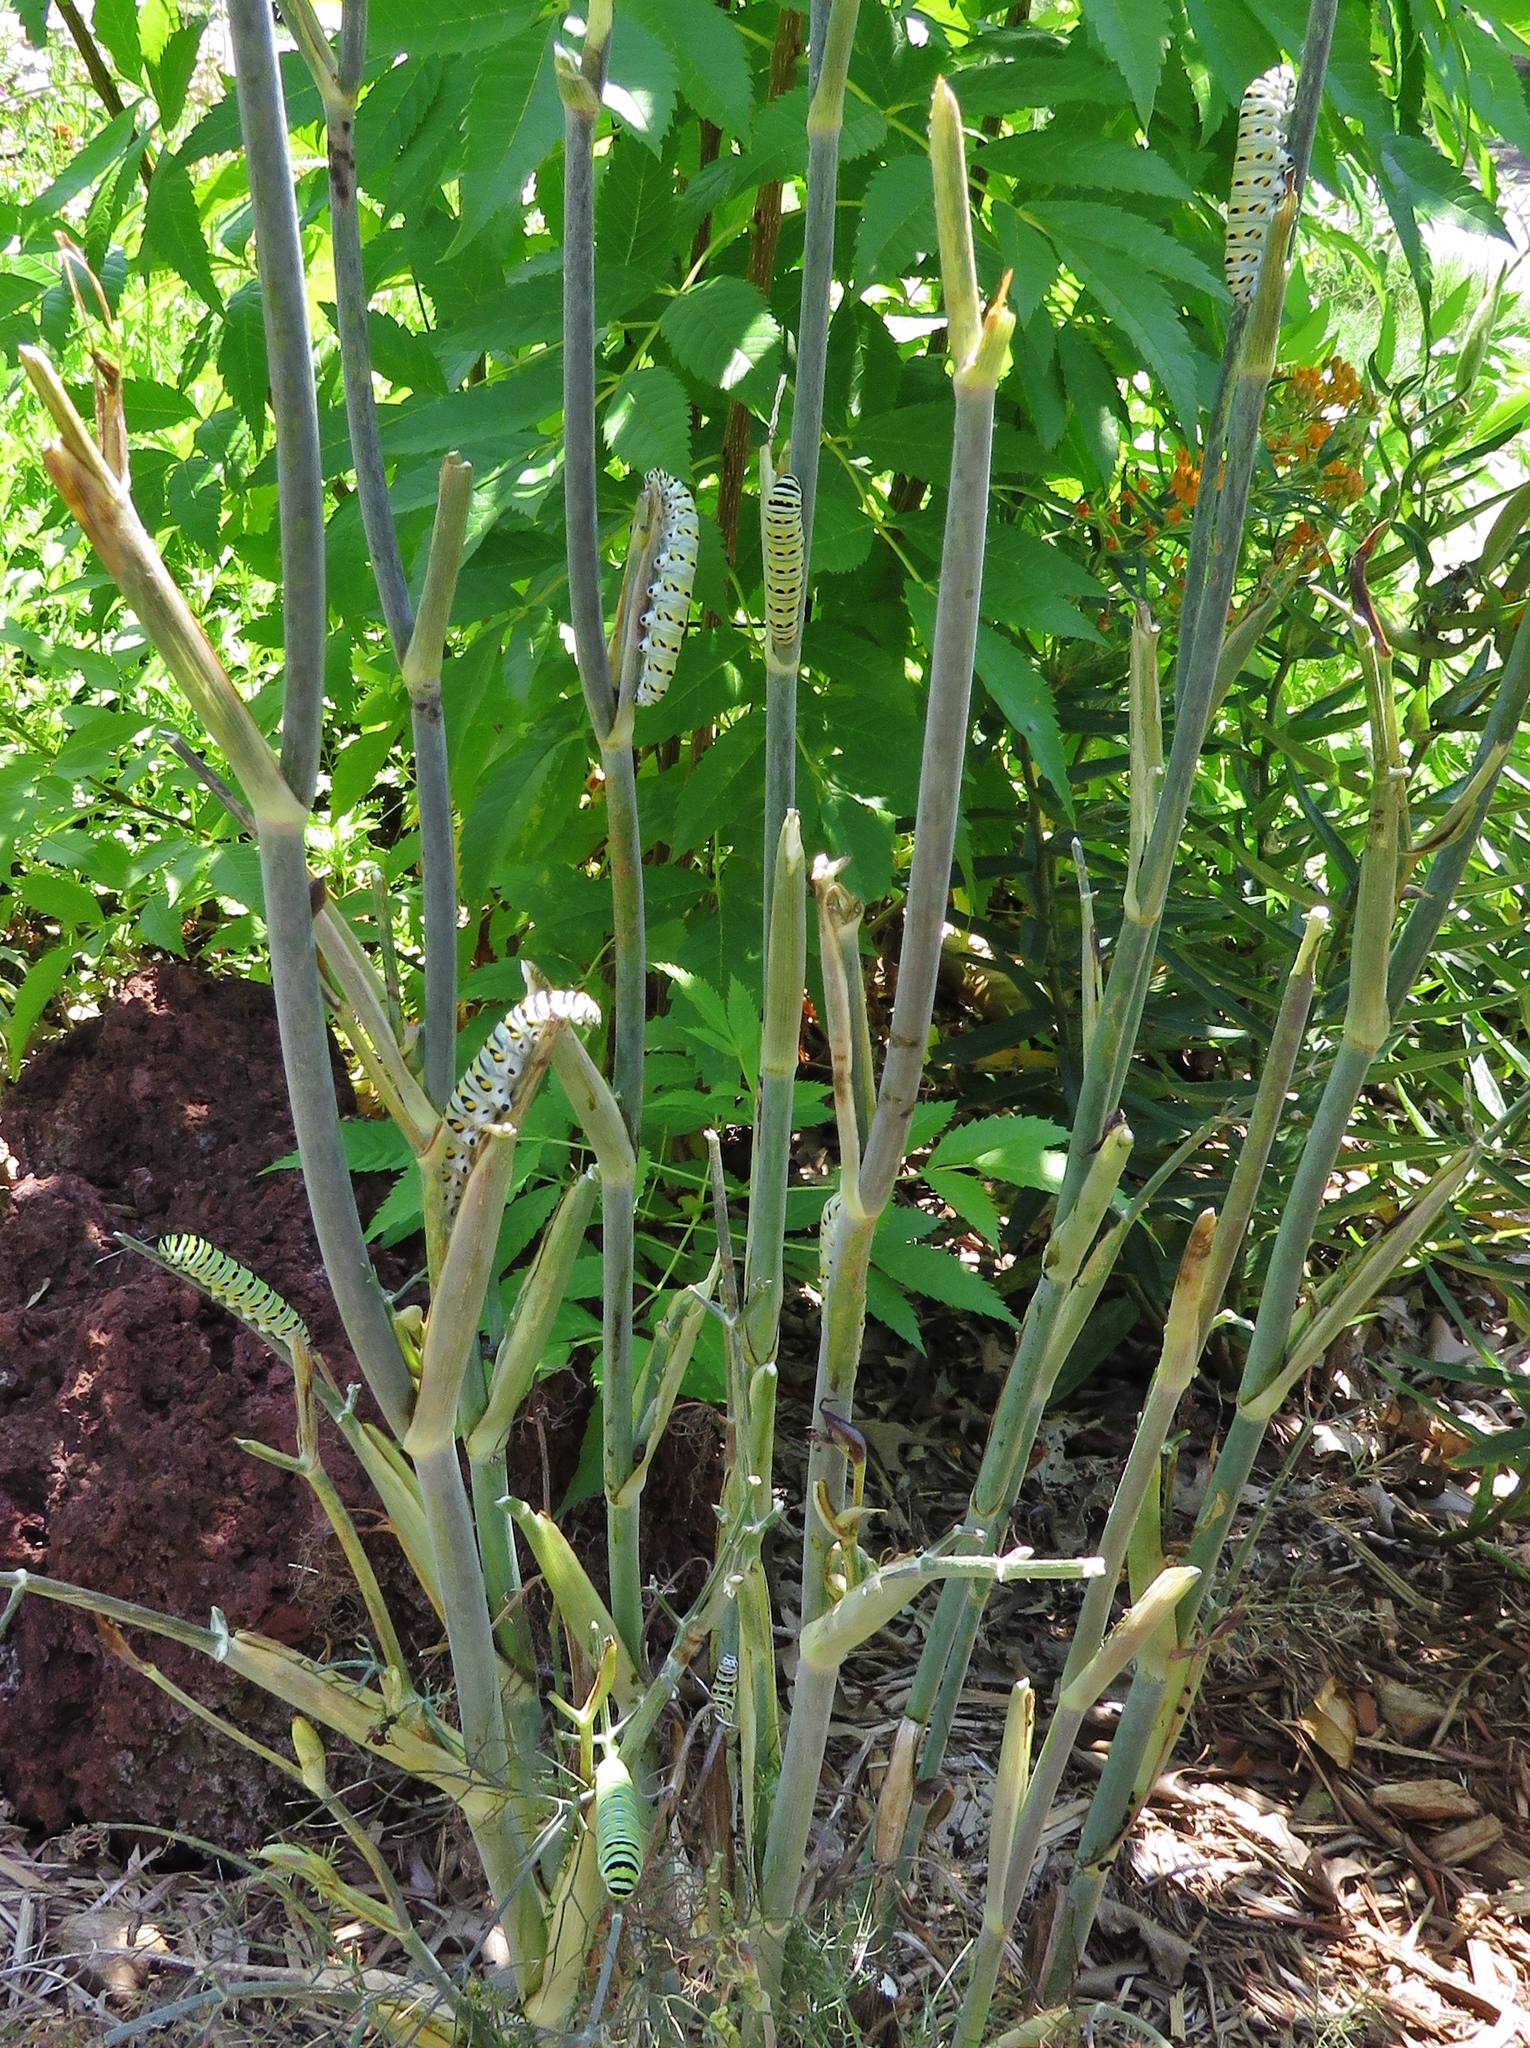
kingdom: Animalia
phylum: Arthropoda
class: Insecta
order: Lepidoptera
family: Papilionidae
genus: Papilio
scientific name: Papilio polyxenes
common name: Black swallowtail
